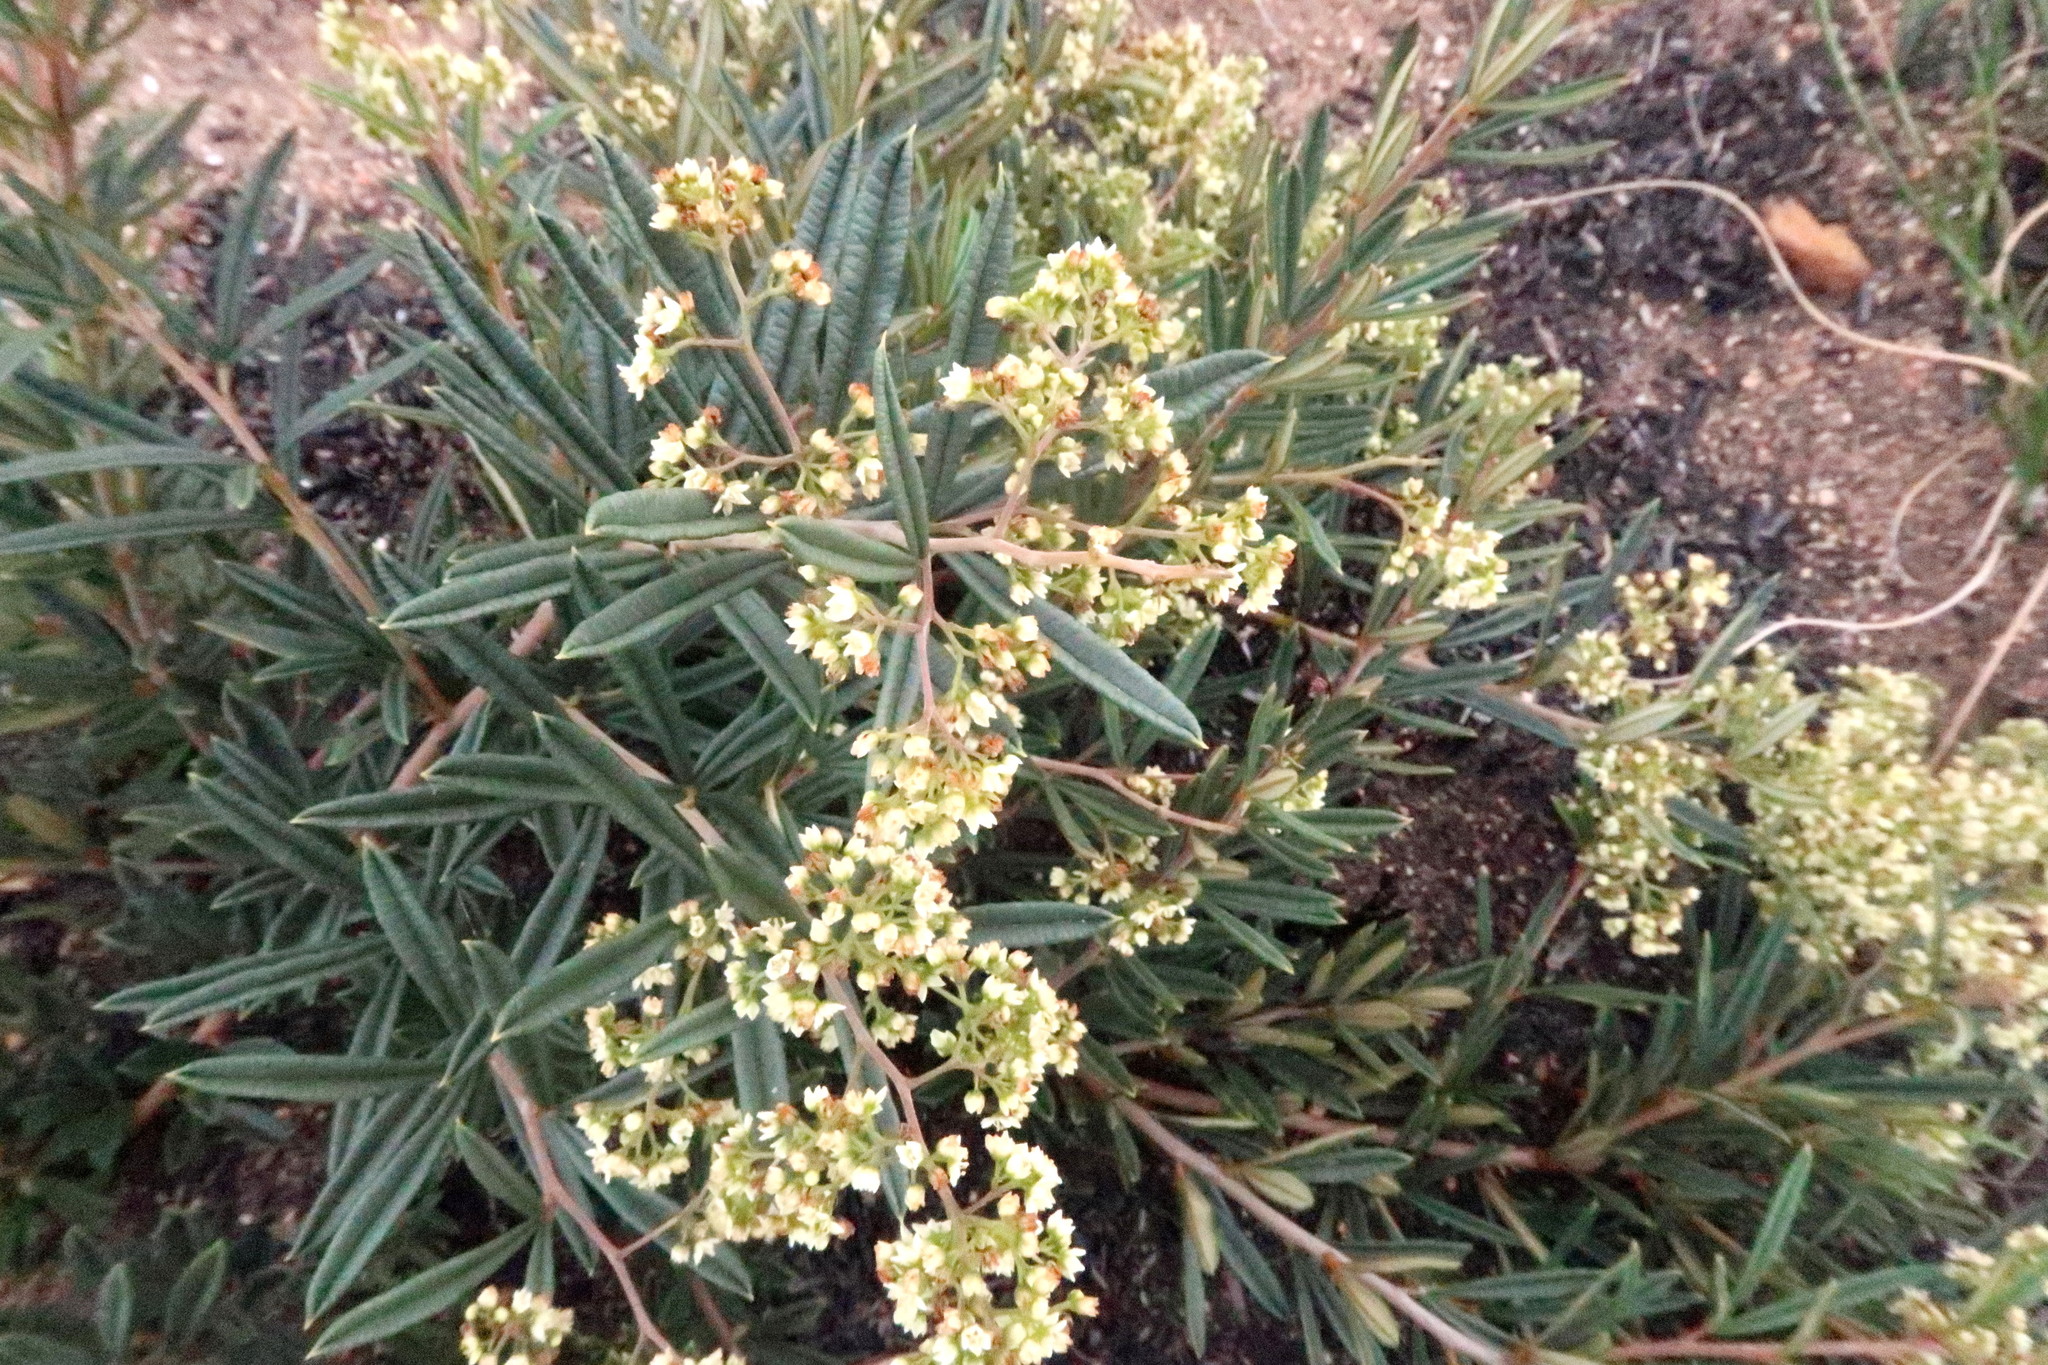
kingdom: Plantae
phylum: Tracheophyta
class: Magnoliopsida
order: Sapindales
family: Anacardiaceae
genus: Searsia
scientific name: Searsia rosmarinifolia
